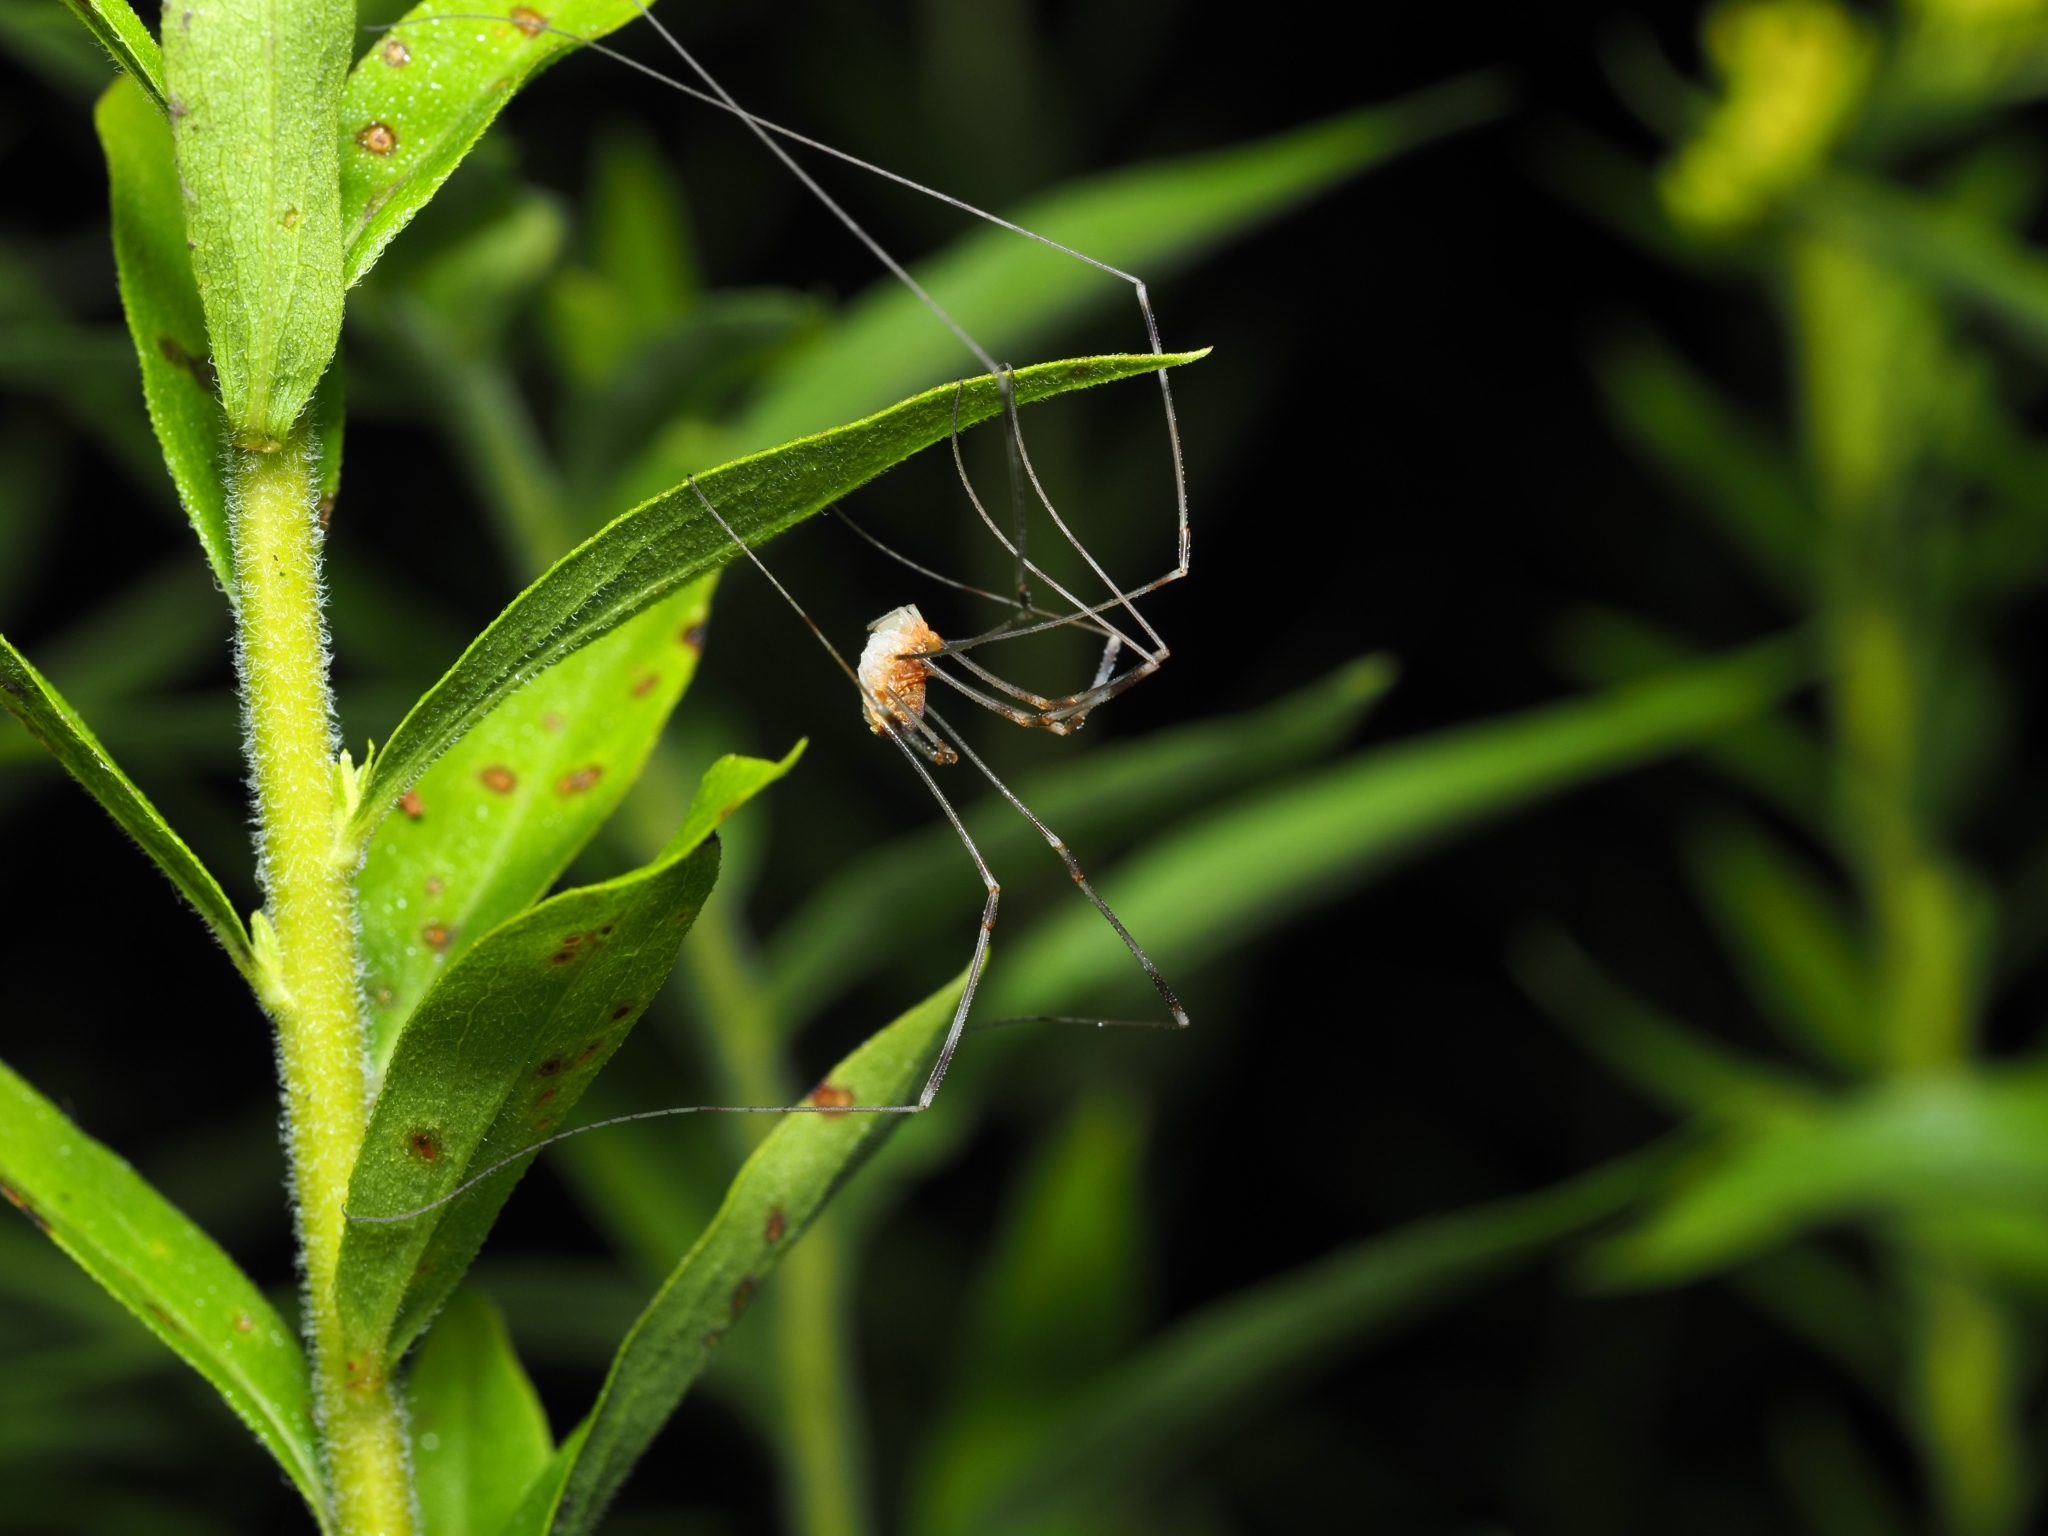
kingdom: Animalia
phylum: Arthropoda
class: Arachnida
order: Opiliones
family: Phalangiidae
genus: Opilio
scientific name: Opilio canestrinii
